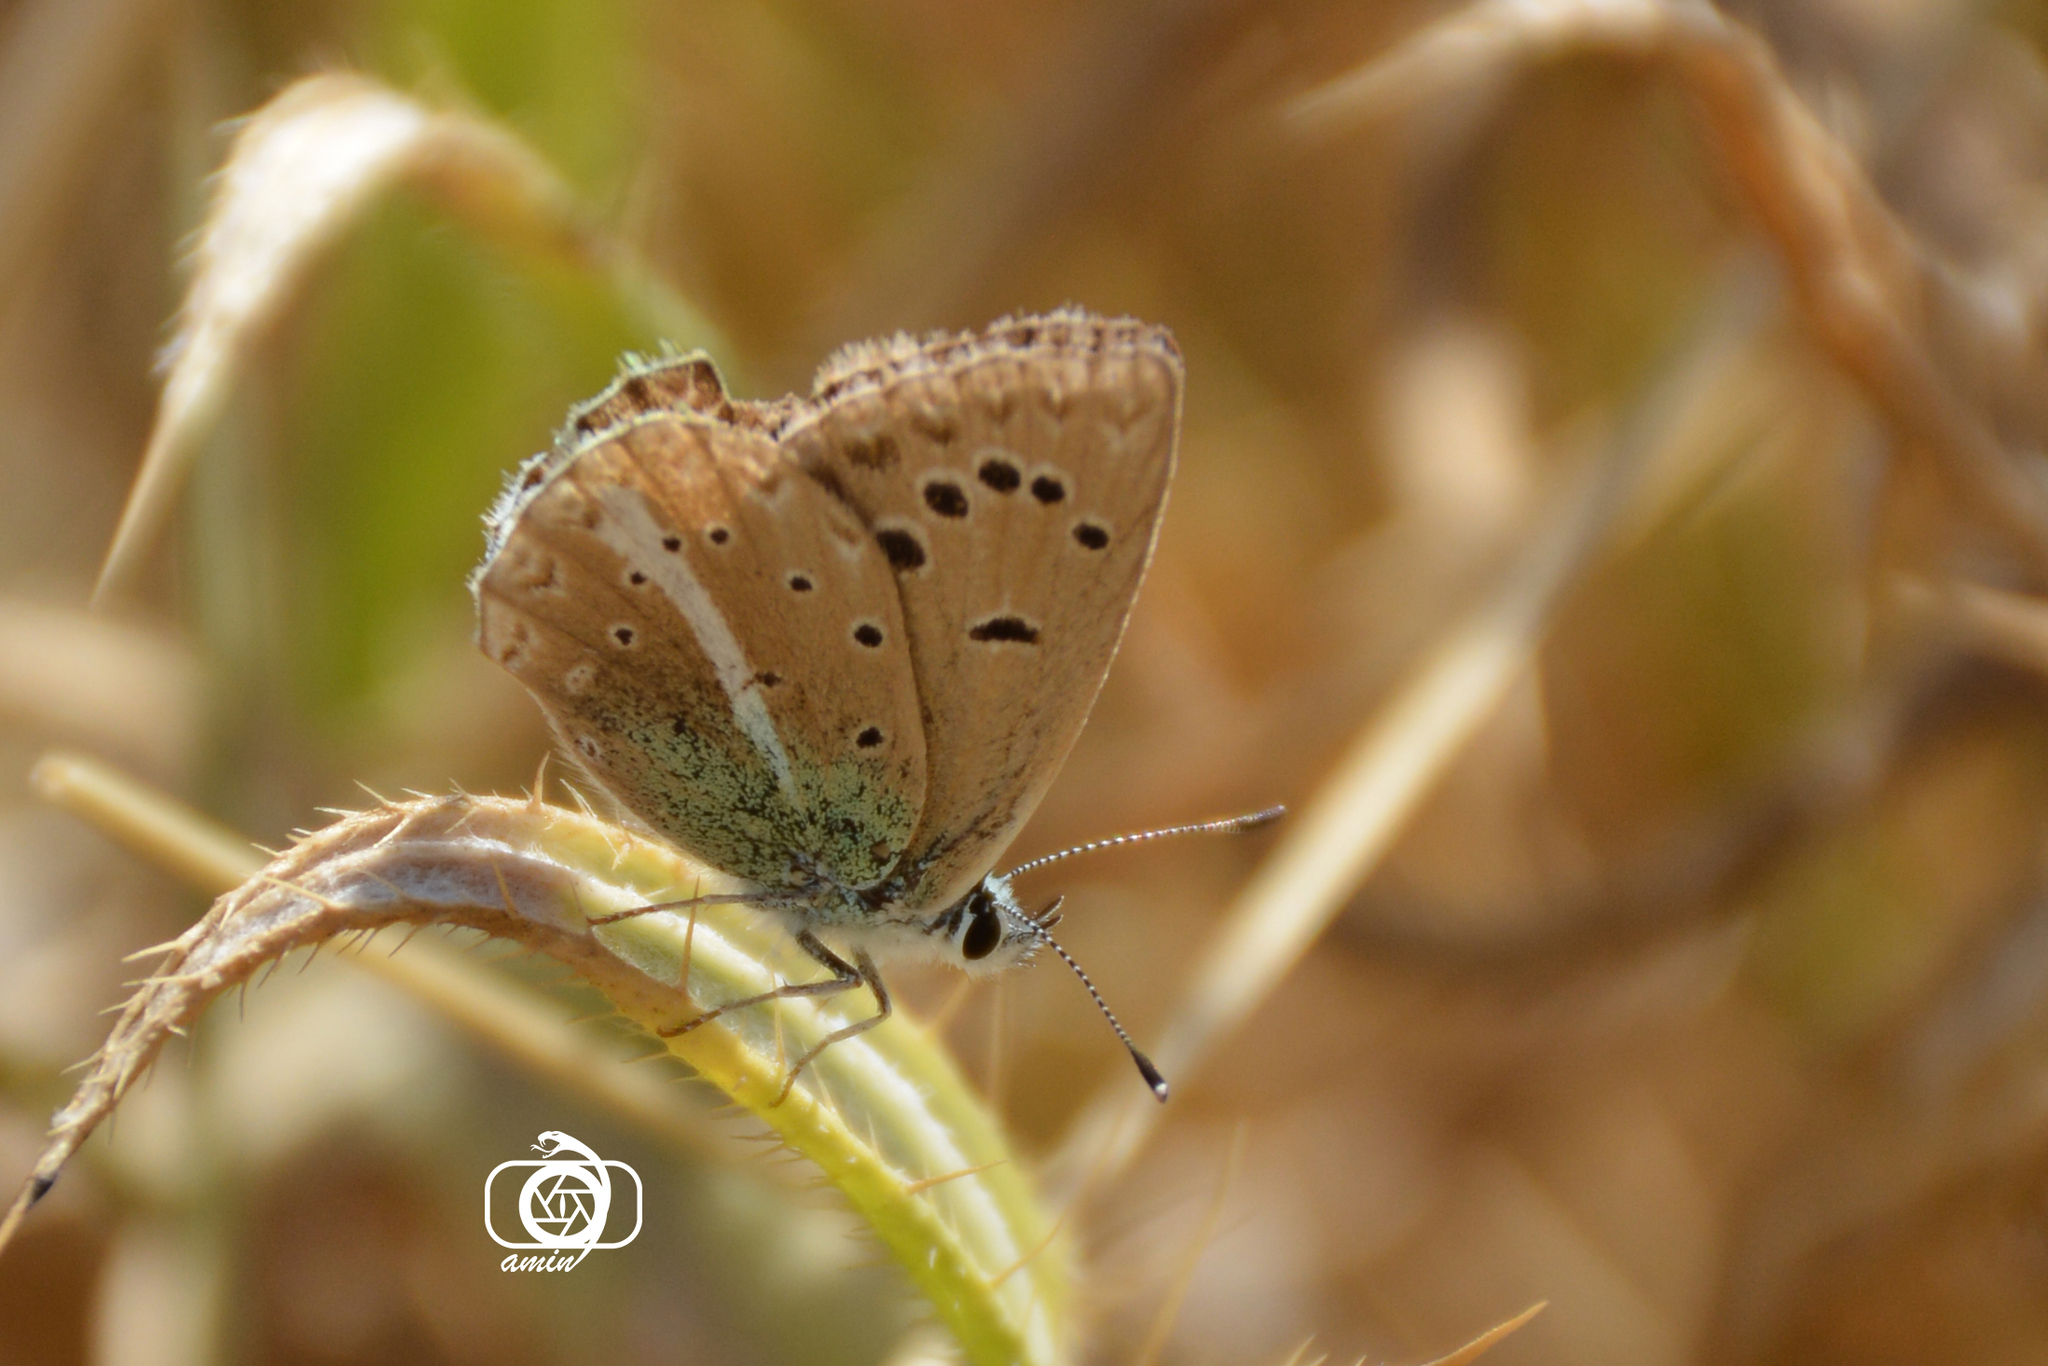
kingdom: Animalia
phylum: Arthropoda
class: Insecta
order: Lepidoptera
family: Lycaenidae
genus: Polyommatus
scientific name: Polyommatus vanensis
